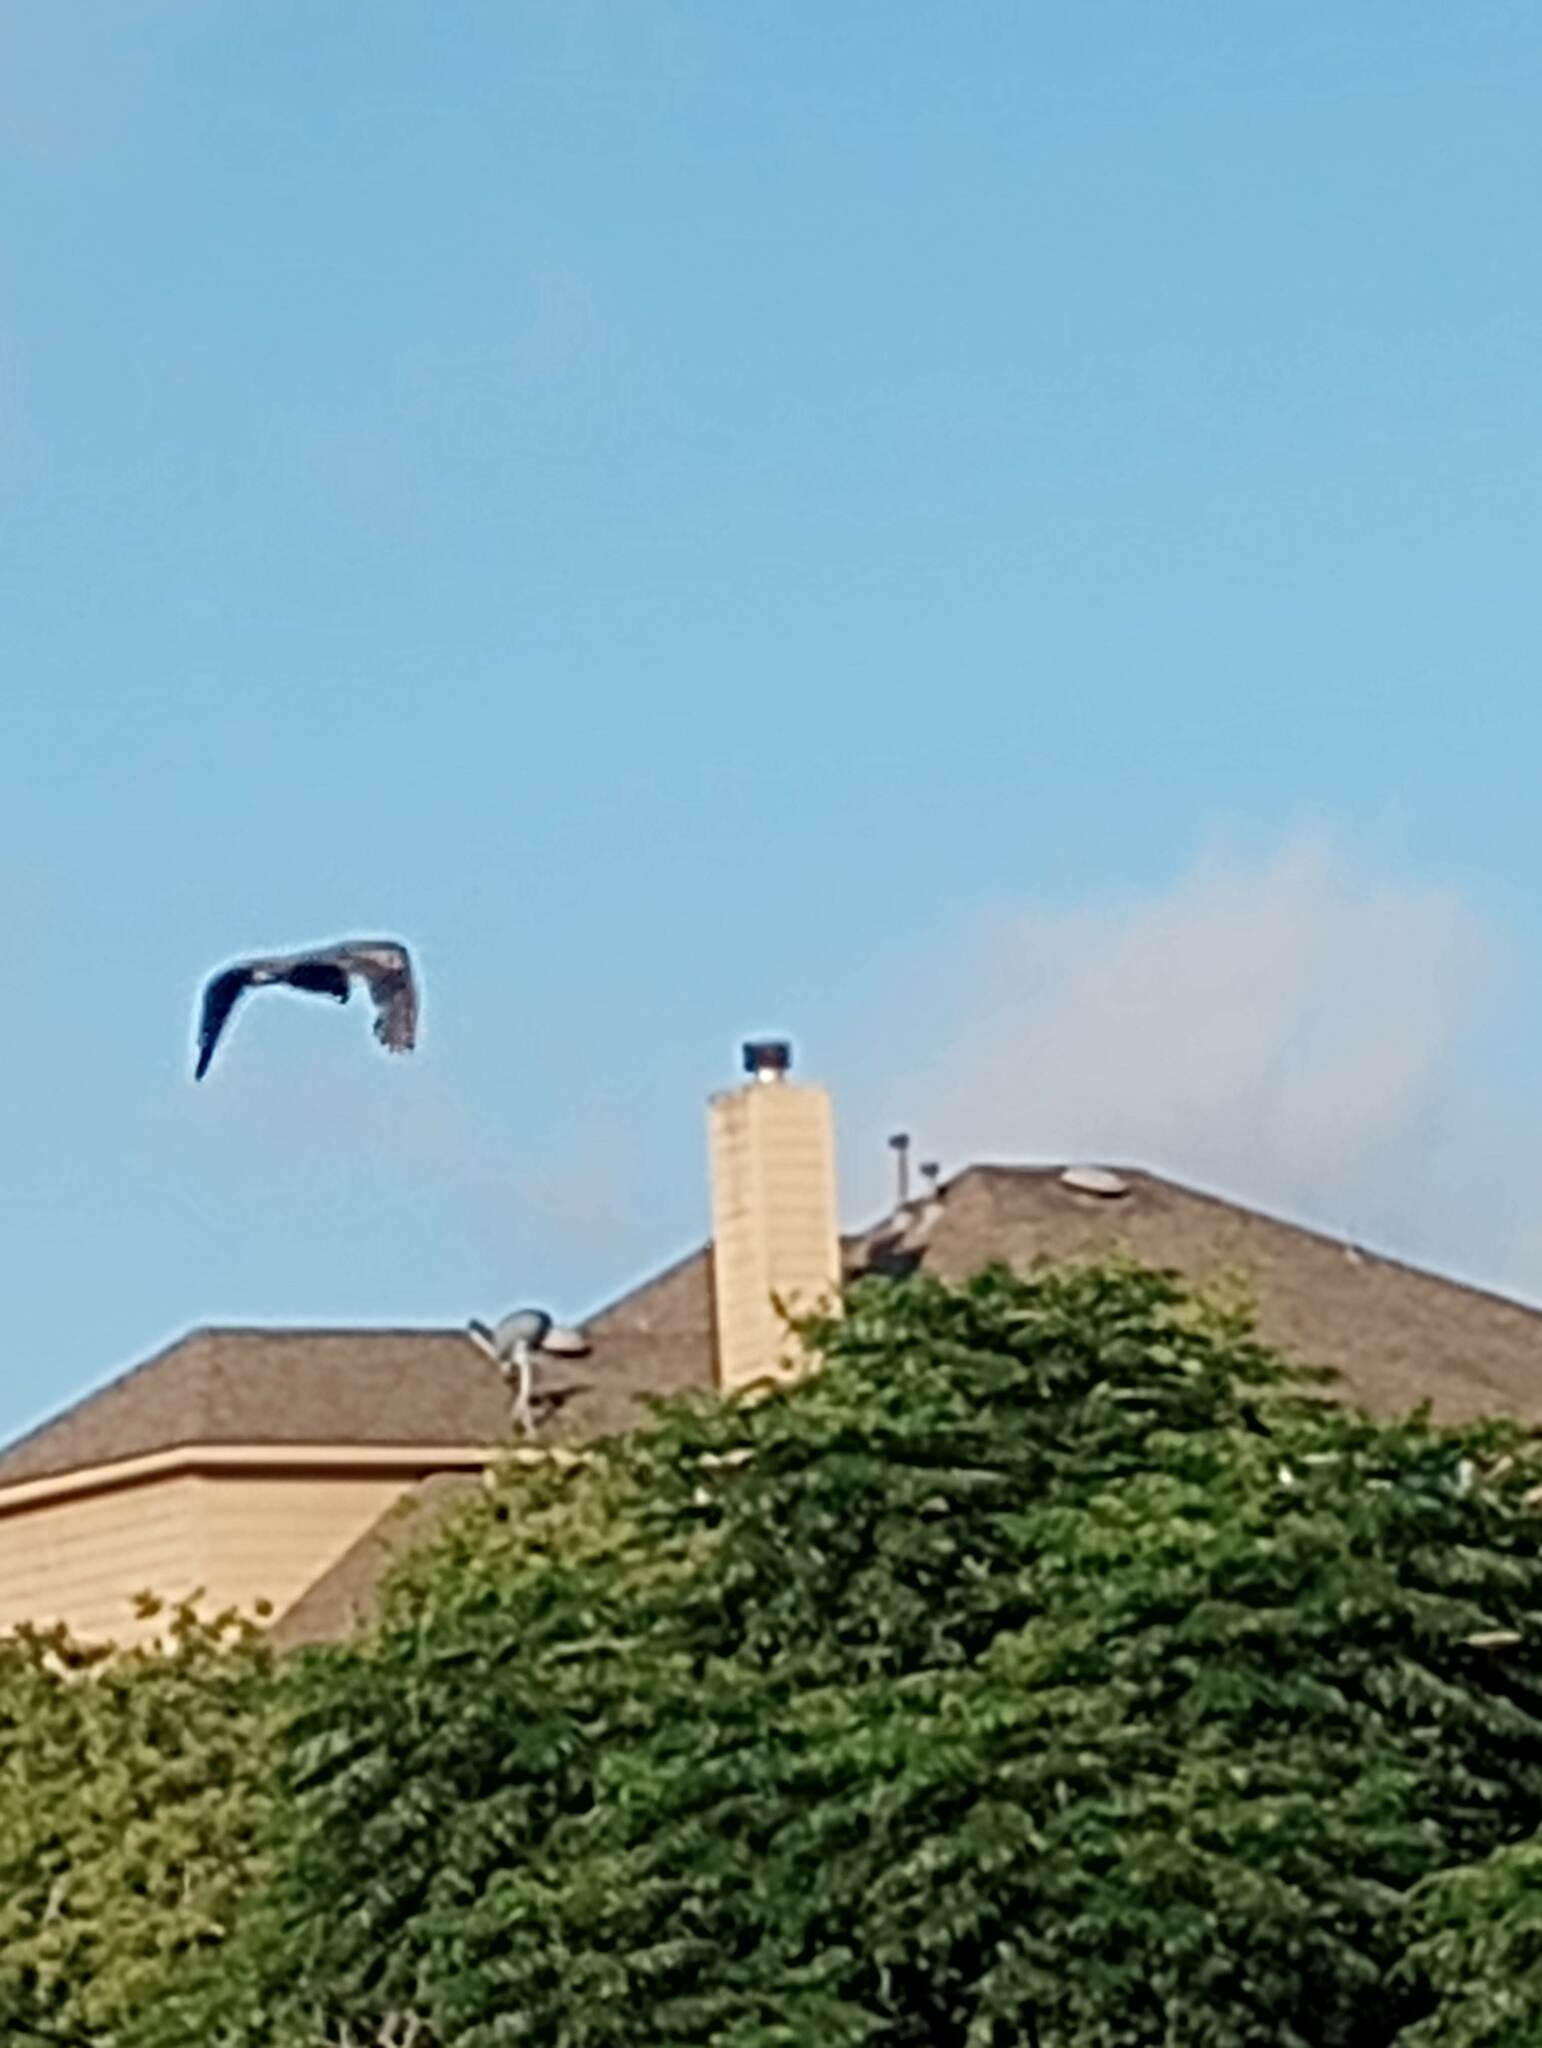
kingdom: Animalia
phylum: Chordata
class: Aves
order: Pelecaniformes
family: Ardeidae
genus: Ardea
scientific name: Ardea herodias
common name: Great blue heron
